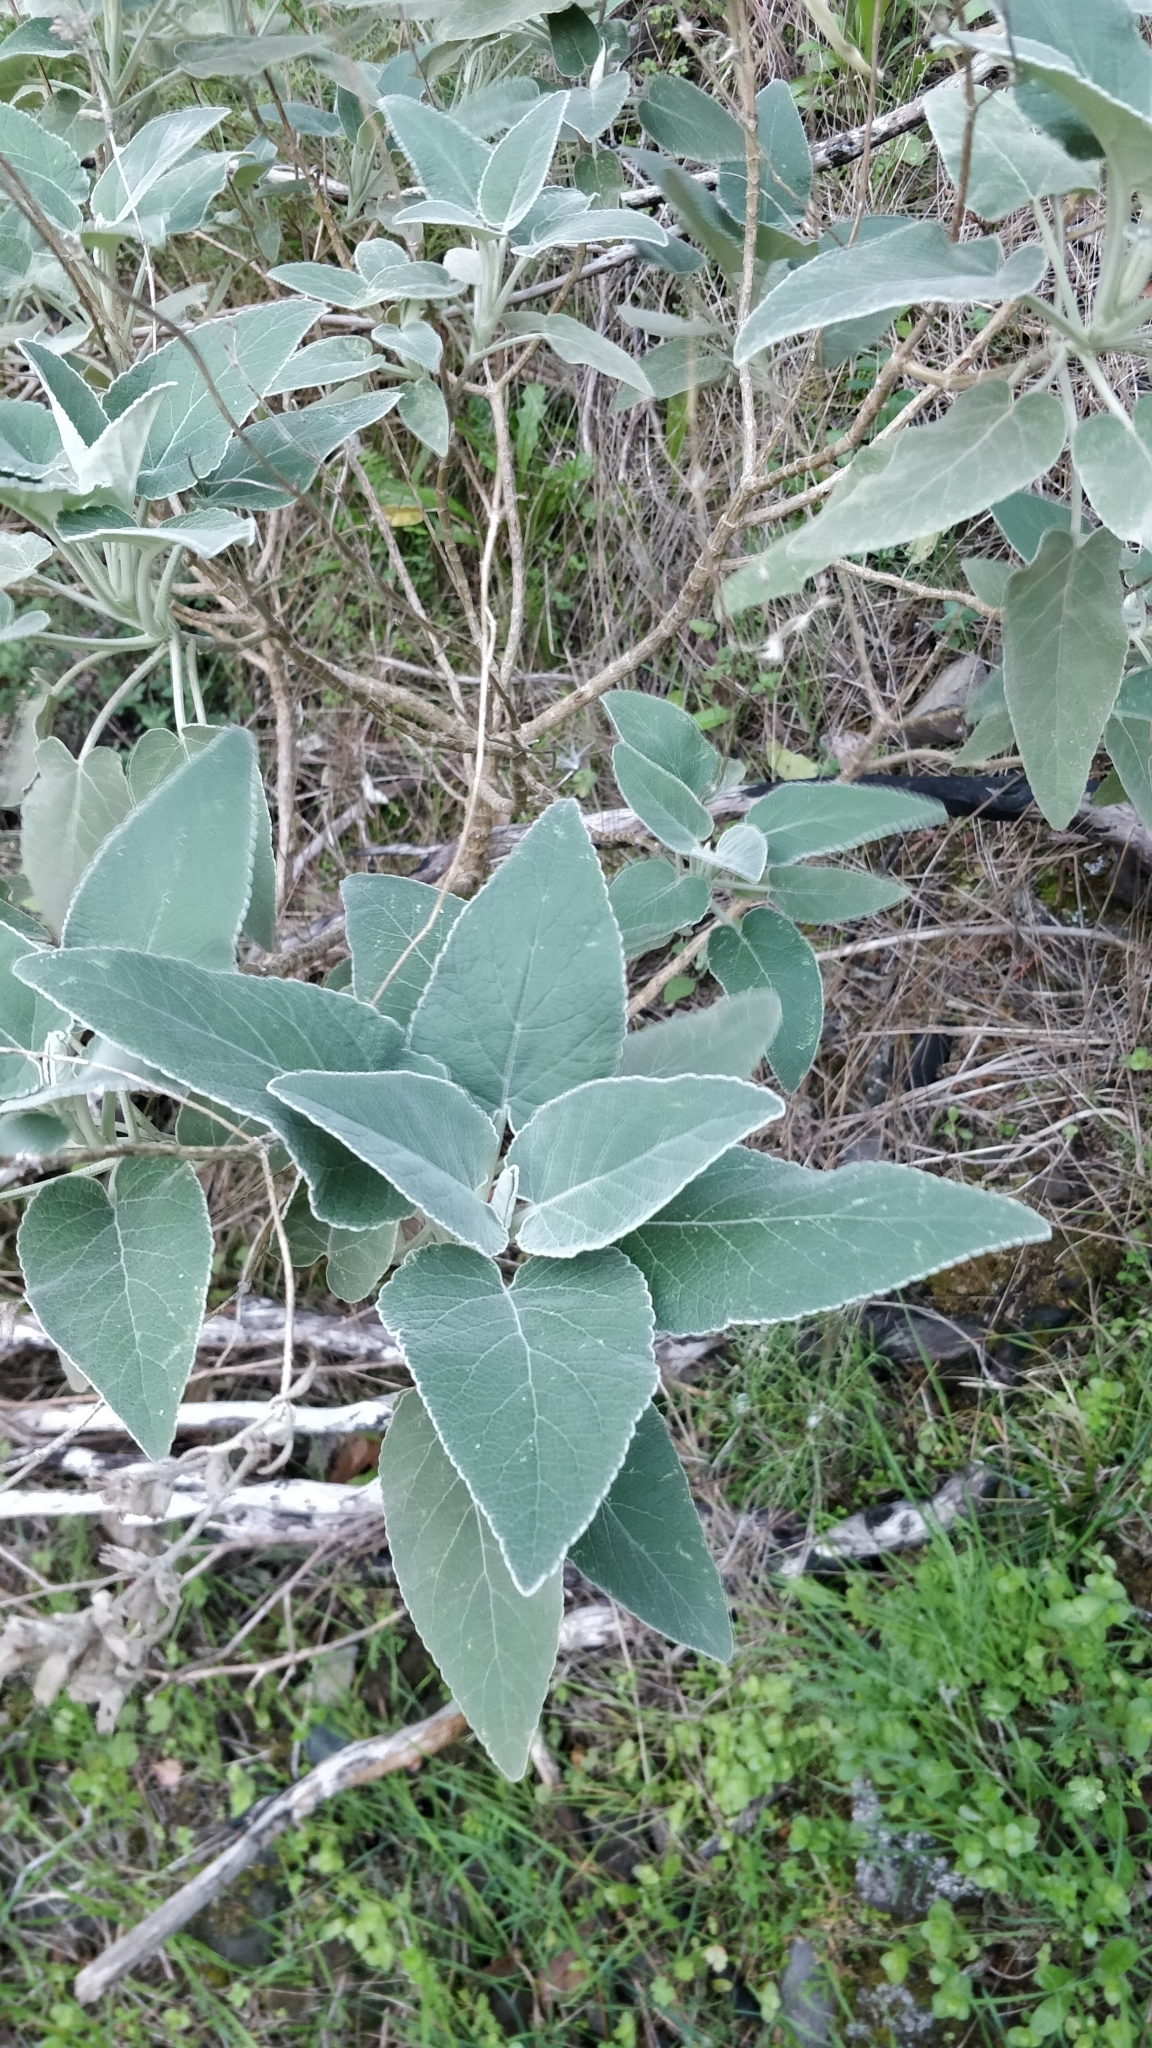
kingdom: Plantae
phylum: Tracheophyta
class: Magnoliopsida
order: Lamiales
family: Lamiaceae
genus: Sideritis
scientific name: Sideritis candicans
